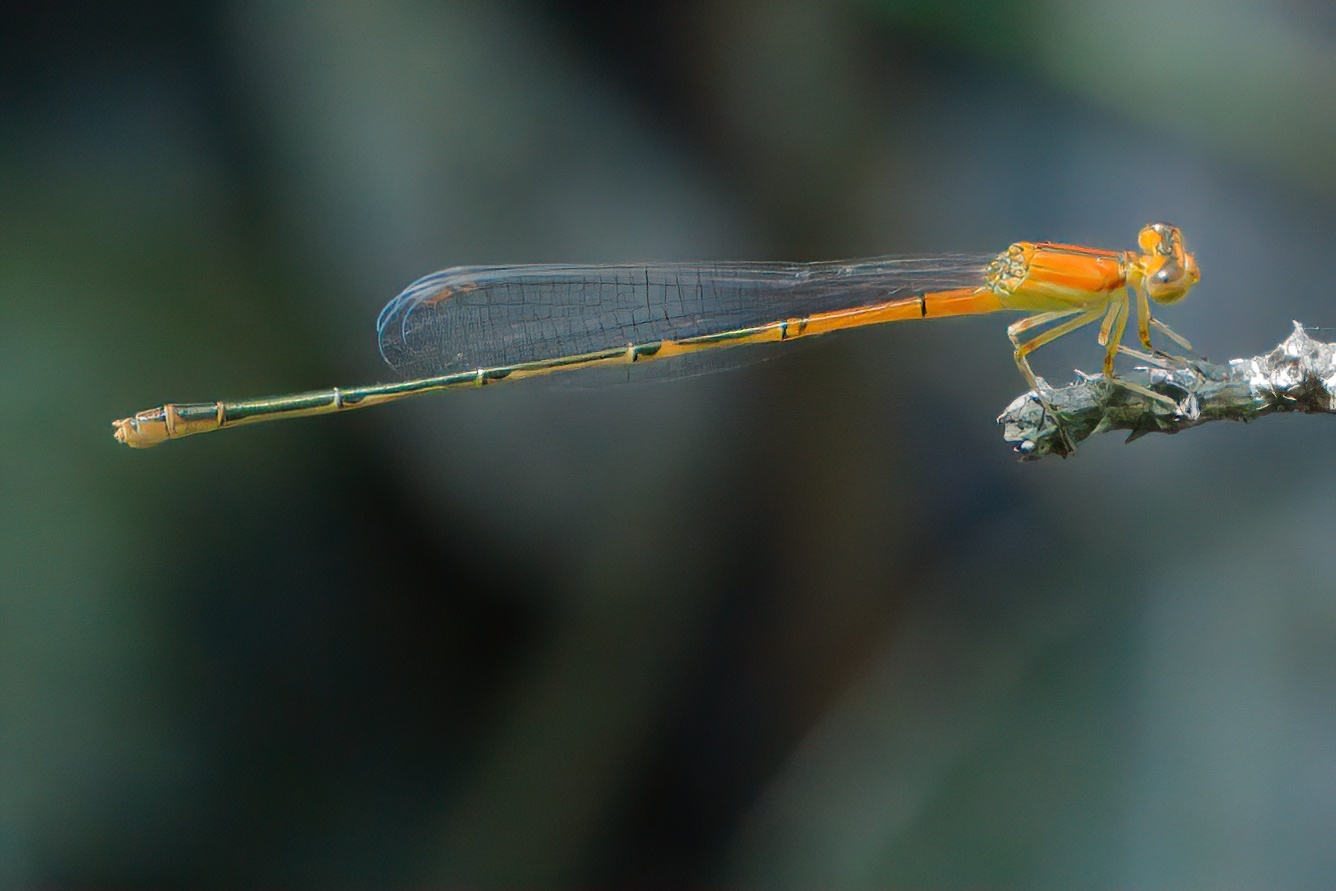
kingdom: Animalia
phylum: Arthropoda
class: Insecta
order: Odonata
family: Coenagrionidae
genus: Ischnura
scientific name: Ischnura prognata
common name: Furtive forktail
